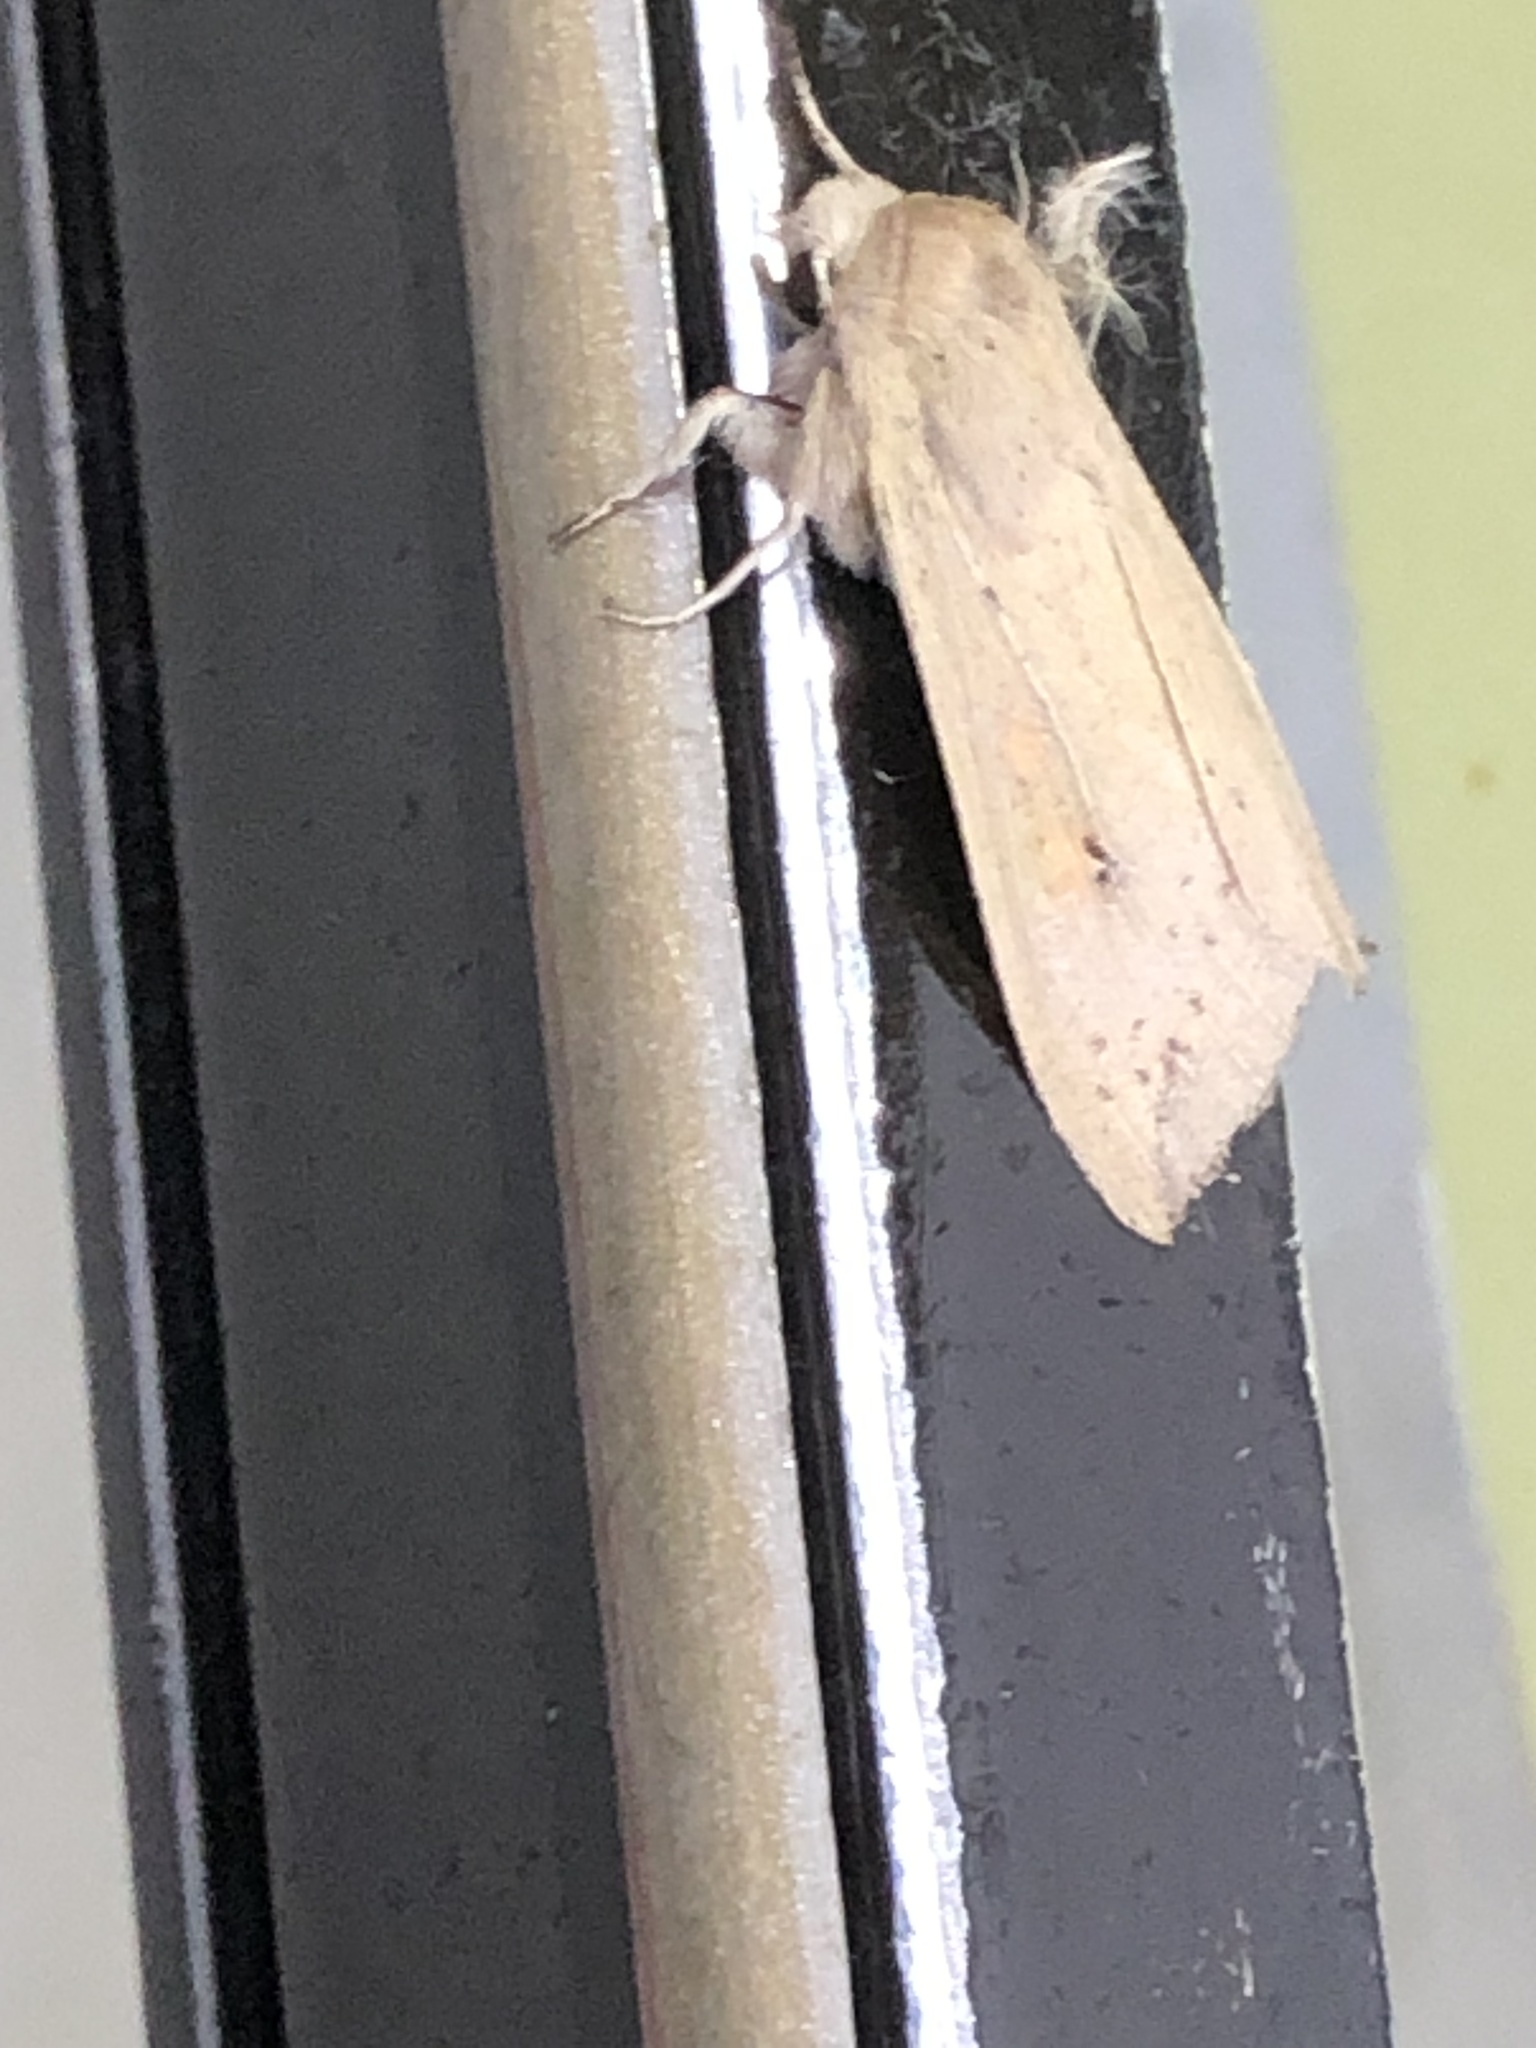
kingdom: Animalia
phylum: Arthropoda
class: Insecta
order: Lepidoptera
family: Noctuidae
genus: Mythimna
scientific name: Mythimna unipuncta
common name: White-speck
